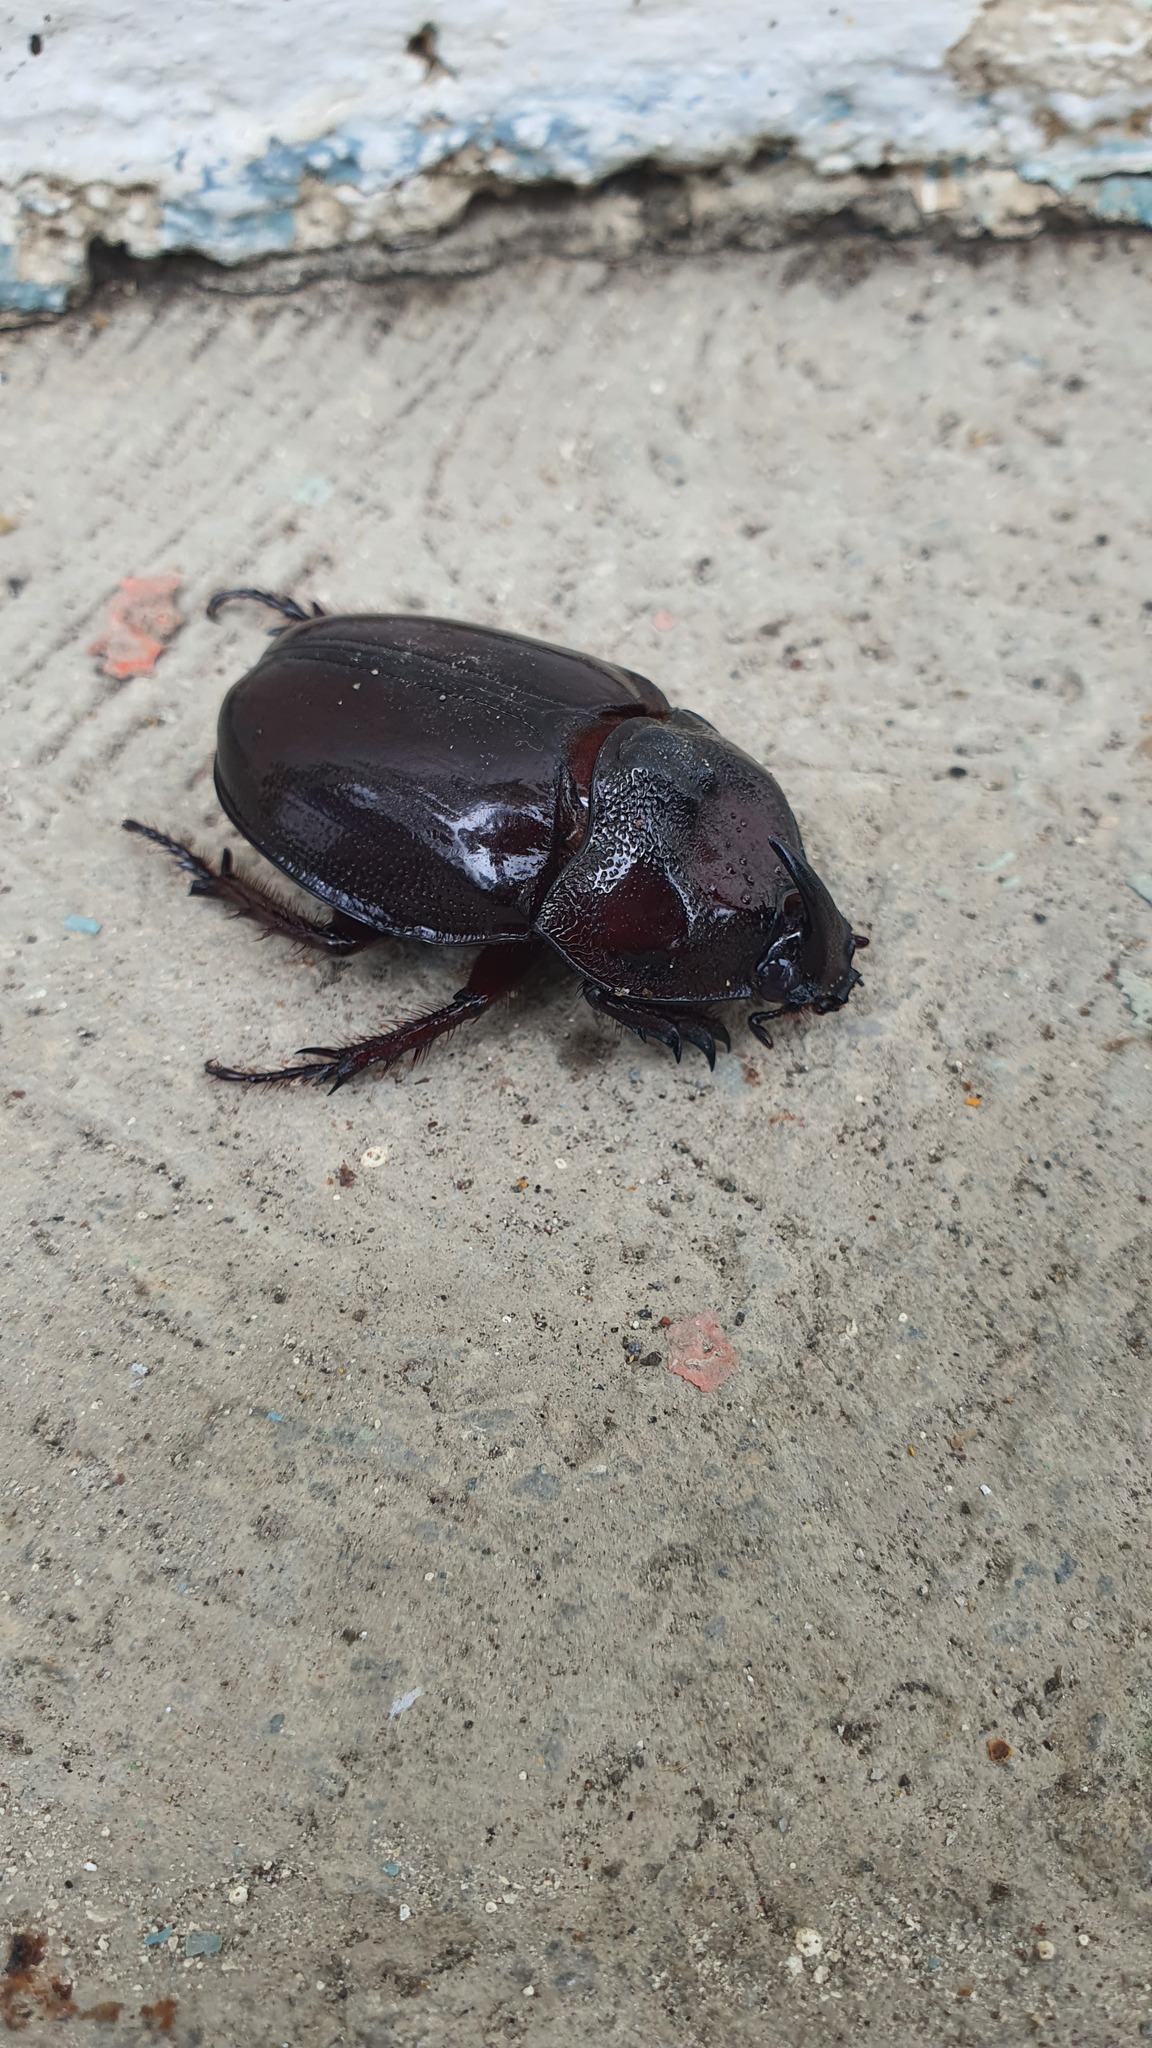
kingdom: Animalia
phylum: Arthropoda
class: Insecta
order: Coleoptera
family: Scarabaeidae
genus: Enema
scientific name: Enema pan
